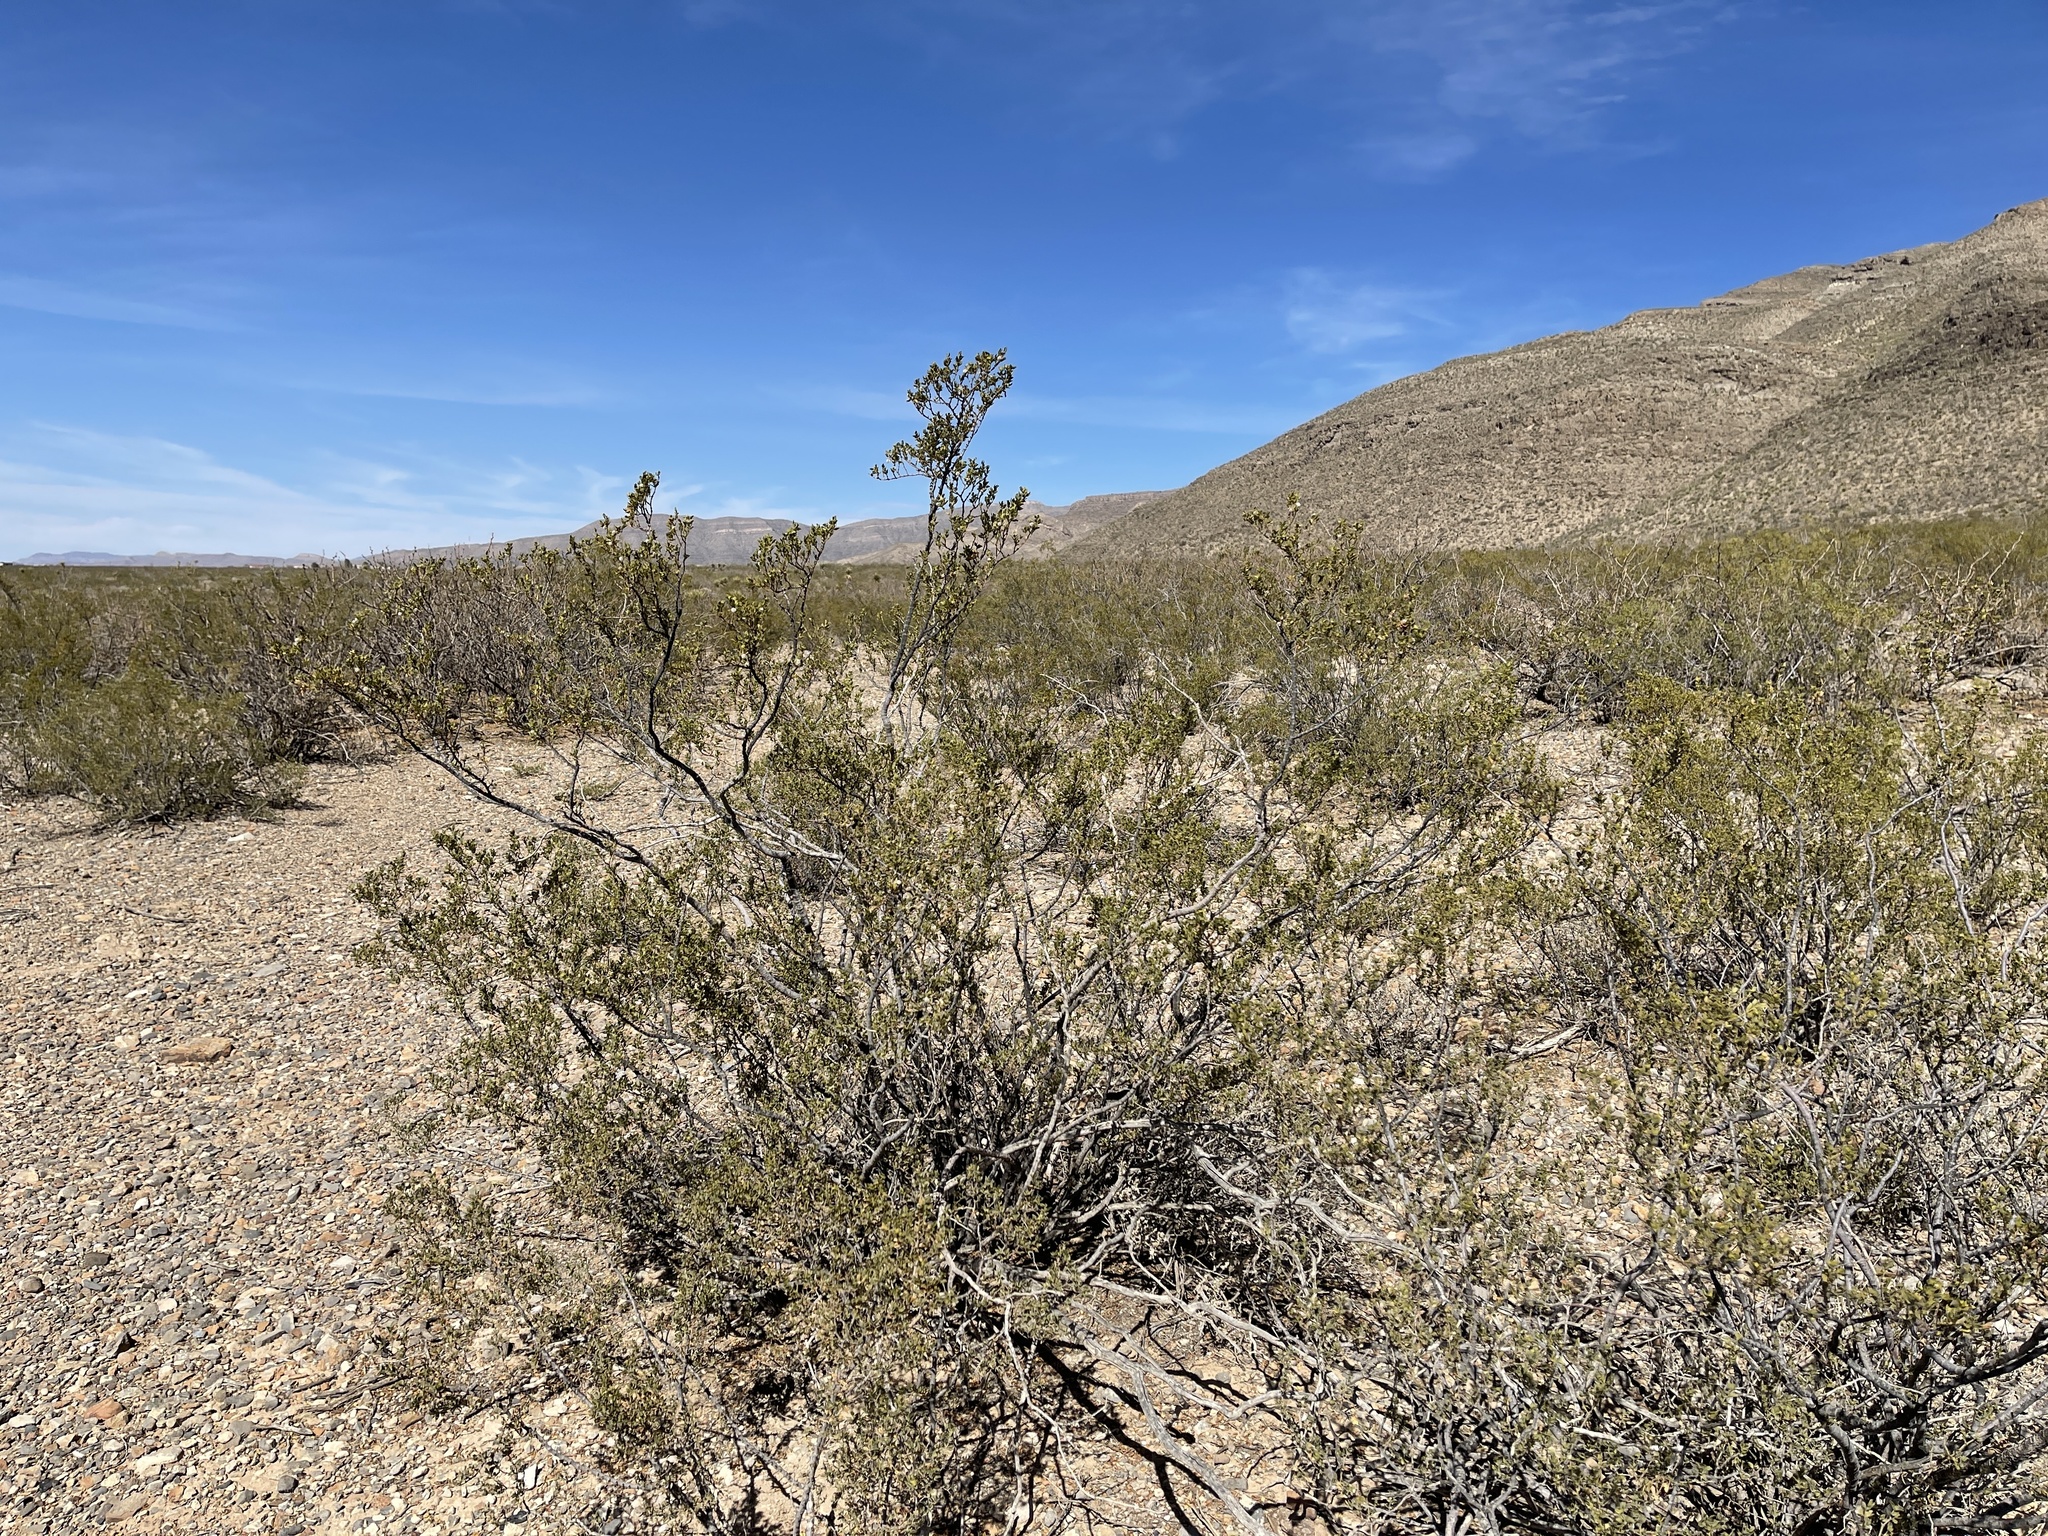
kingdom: Plantae
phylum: Tracheophyta
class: Magnoliopsida
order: Zygophyllales
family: Zygophyllaceae
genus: Larrea
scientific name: Larrea tridentata
